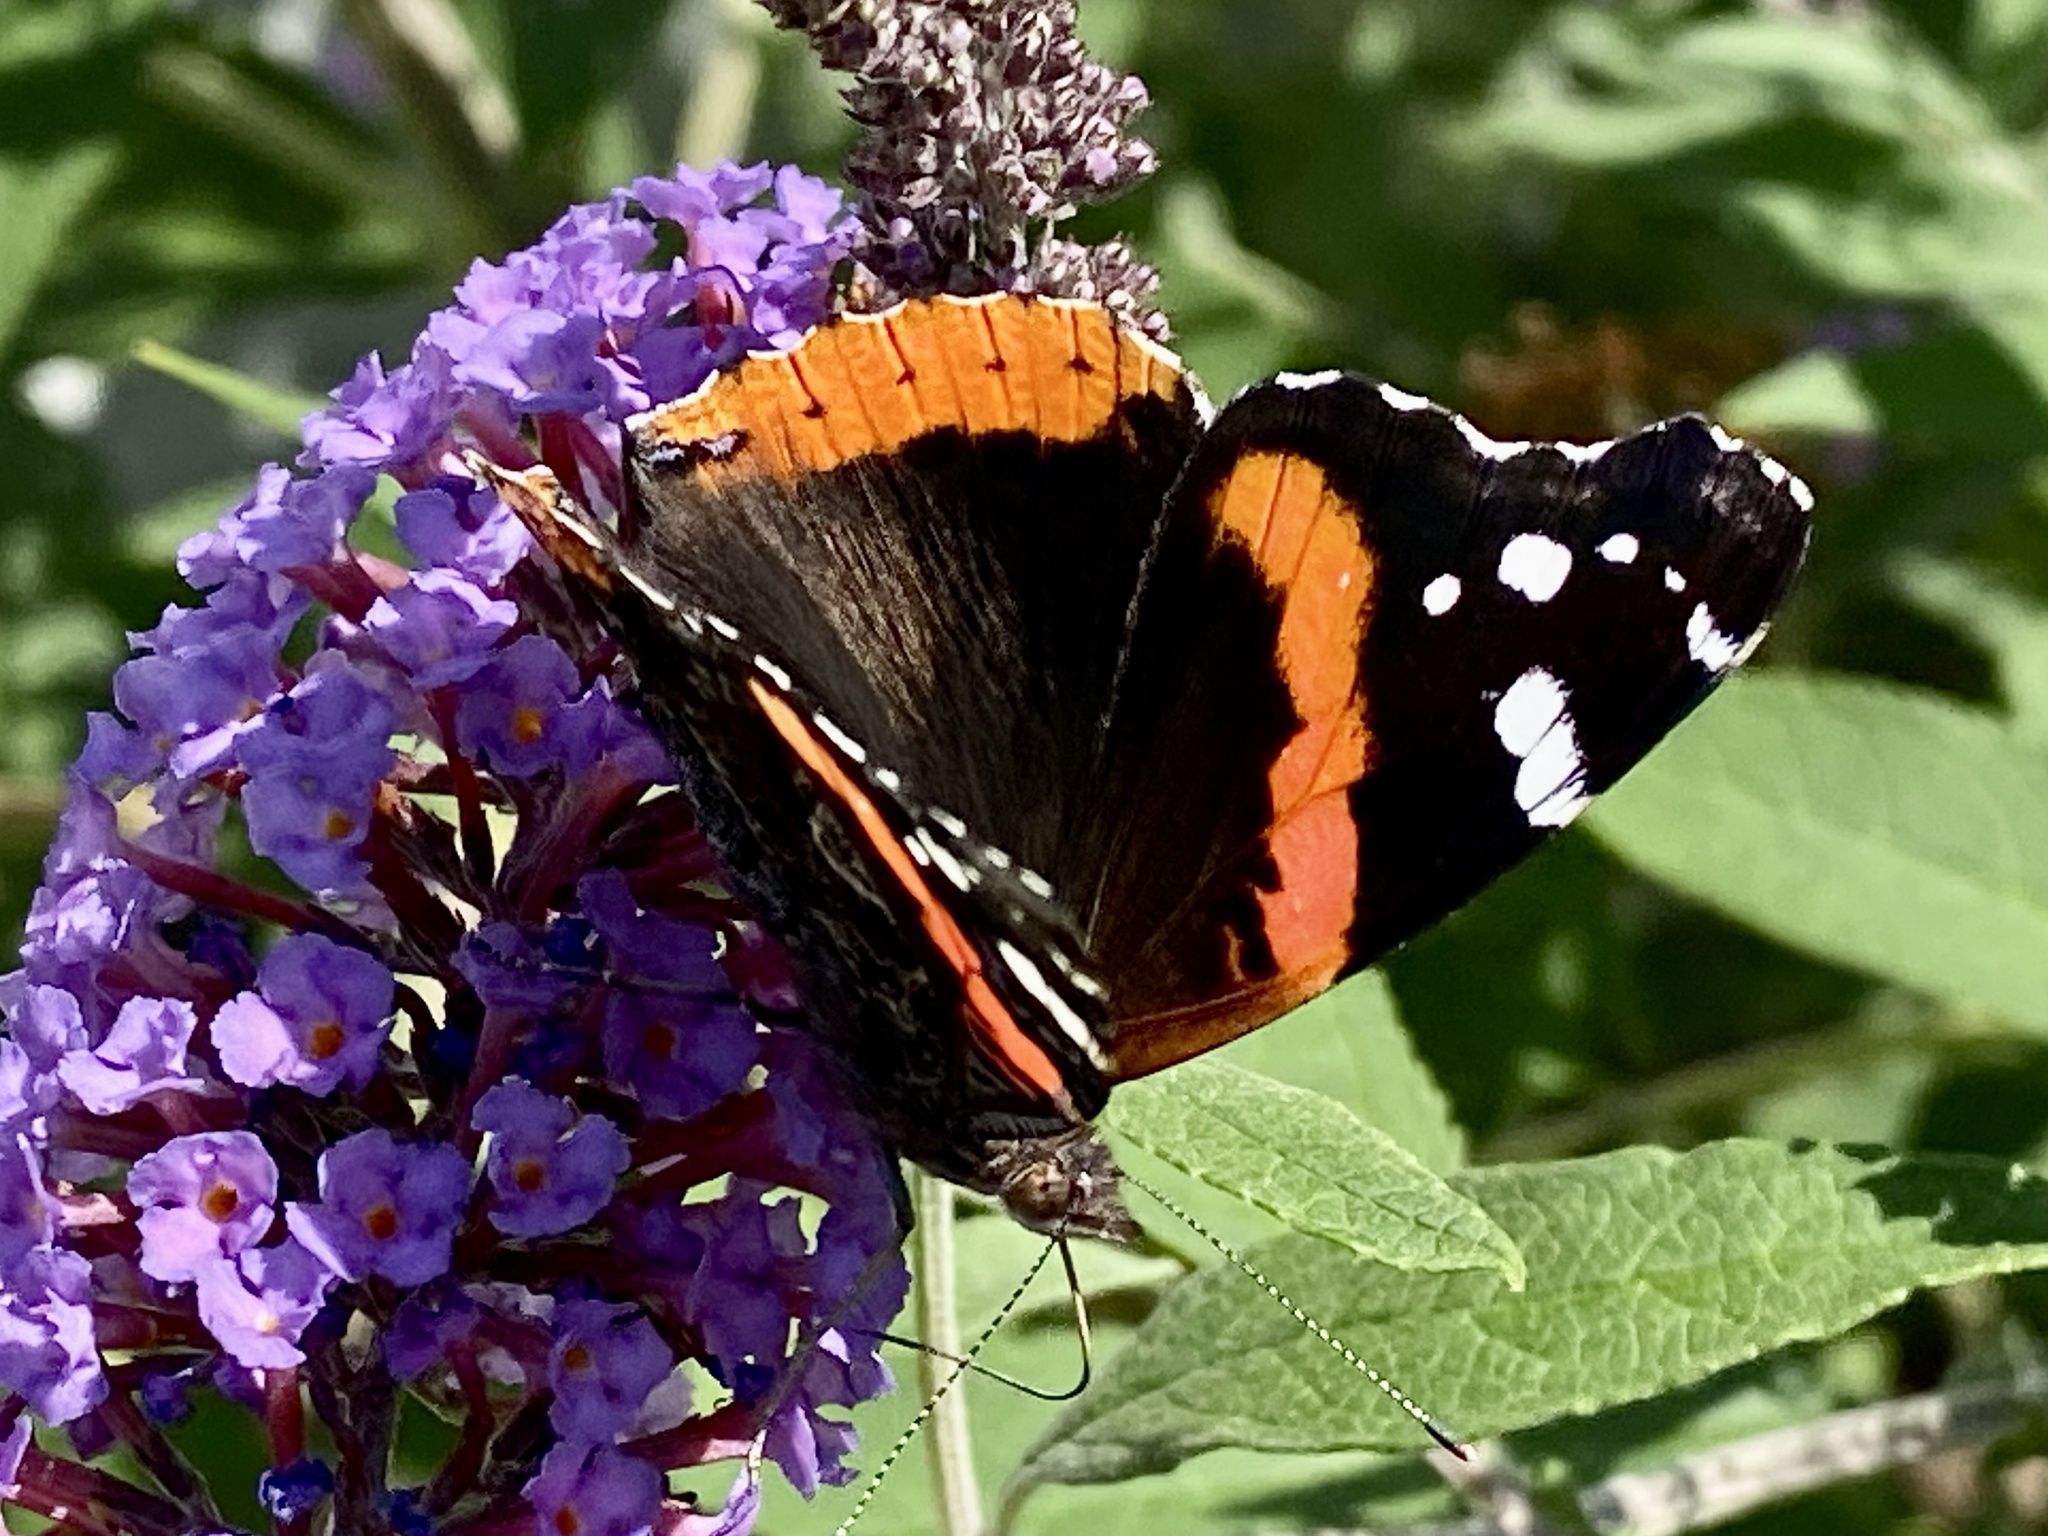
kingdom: Animalia
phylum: Arthropoda
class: Insecta
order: Lepidoptera
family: Nymphalidae
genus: Vanessa
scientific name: Vanessa atalanta
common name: Red admiral
